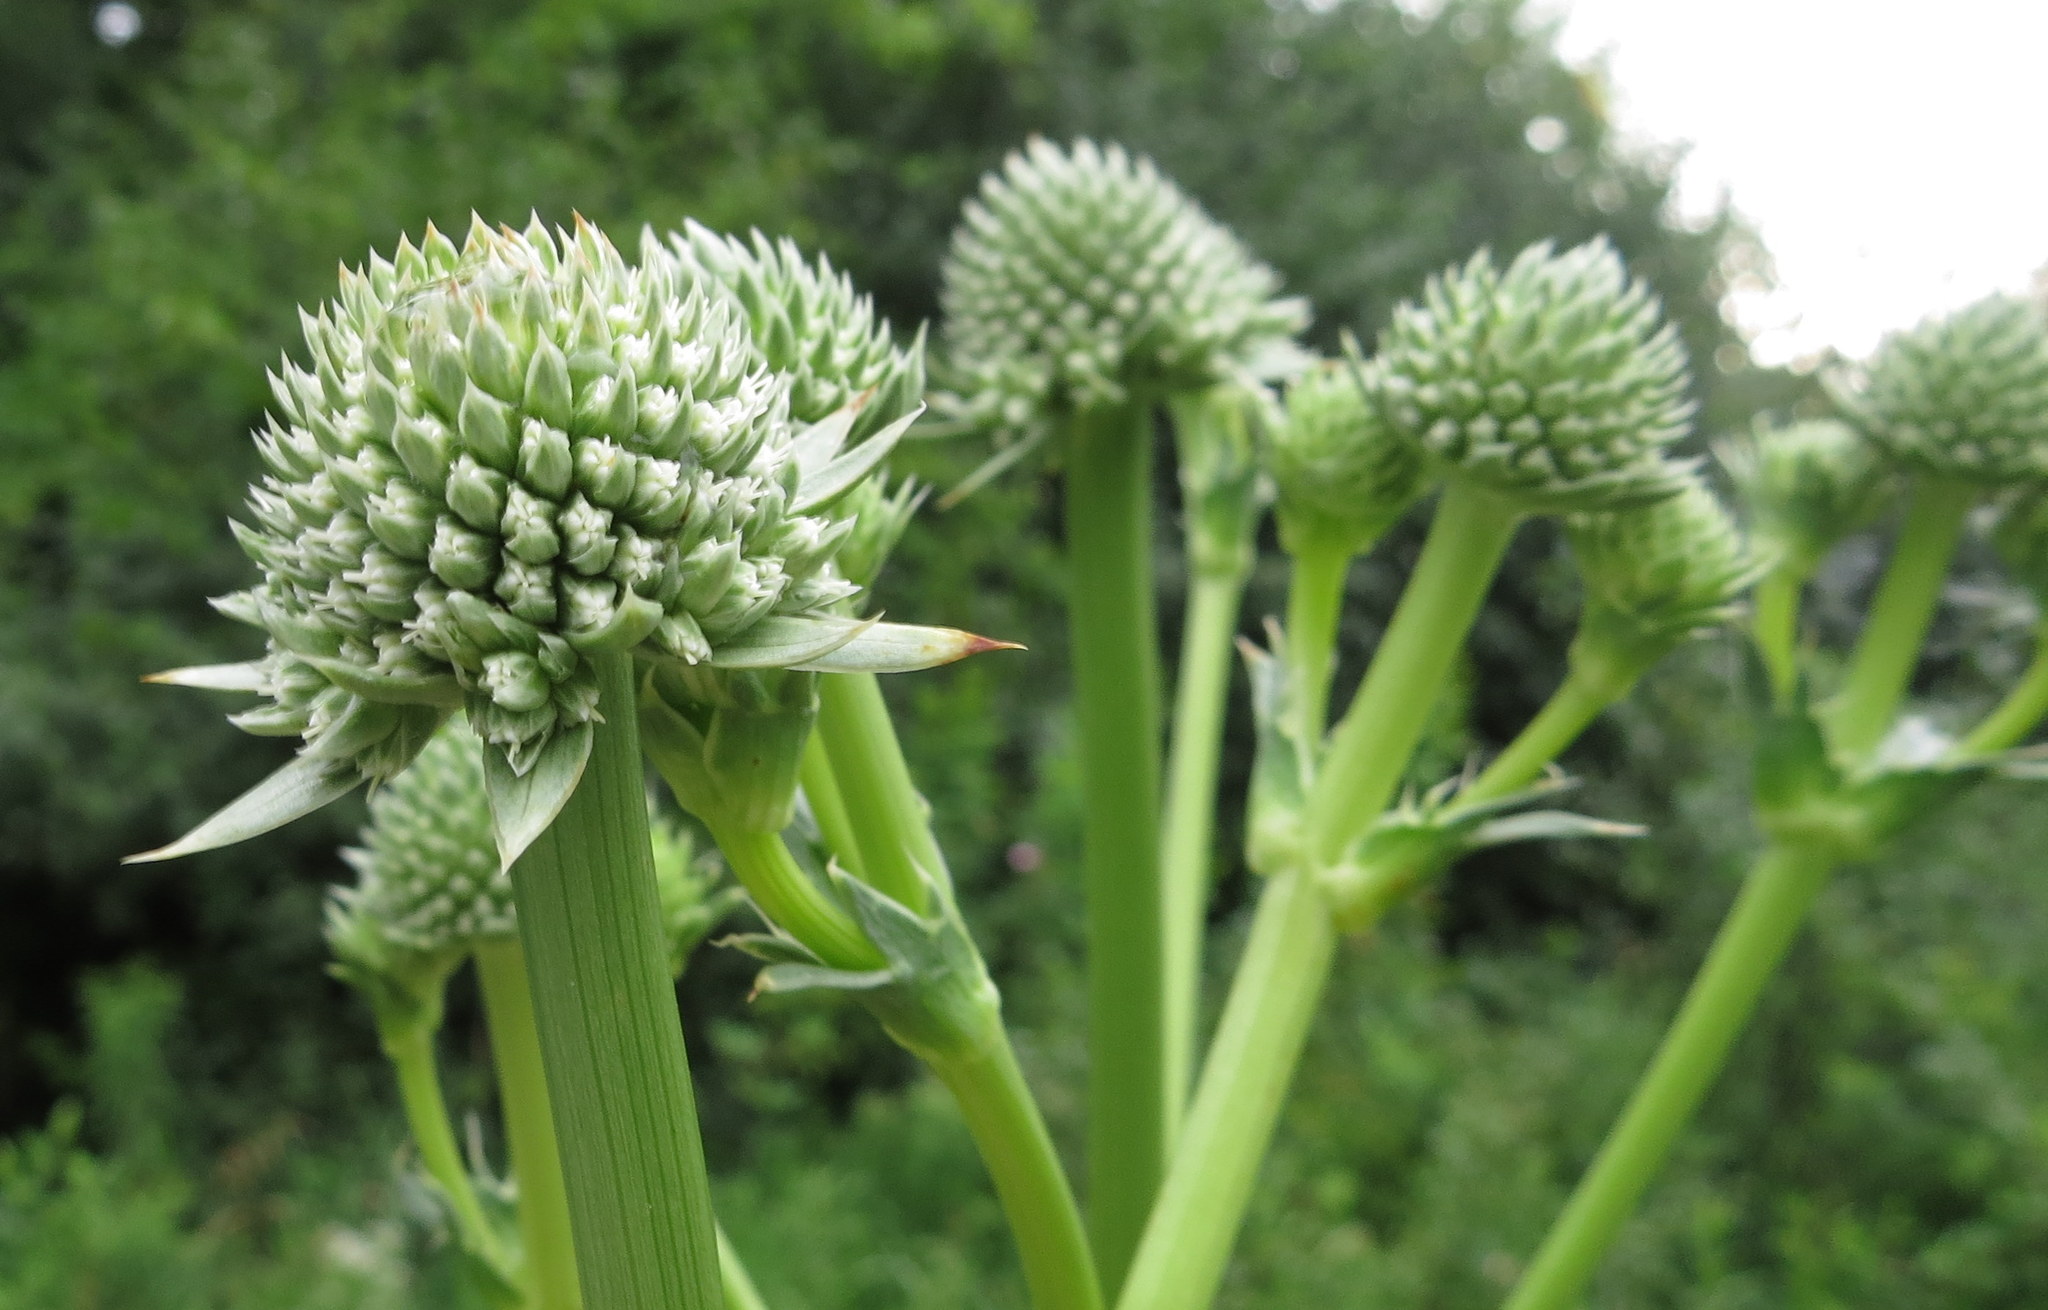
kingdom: Plantae
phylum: Tracheophyta
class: Magnoliopsida
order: Apiales
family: Apiaceae
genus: Eryngium
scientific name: Eryngium yuccifolium
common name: Button eryngo
